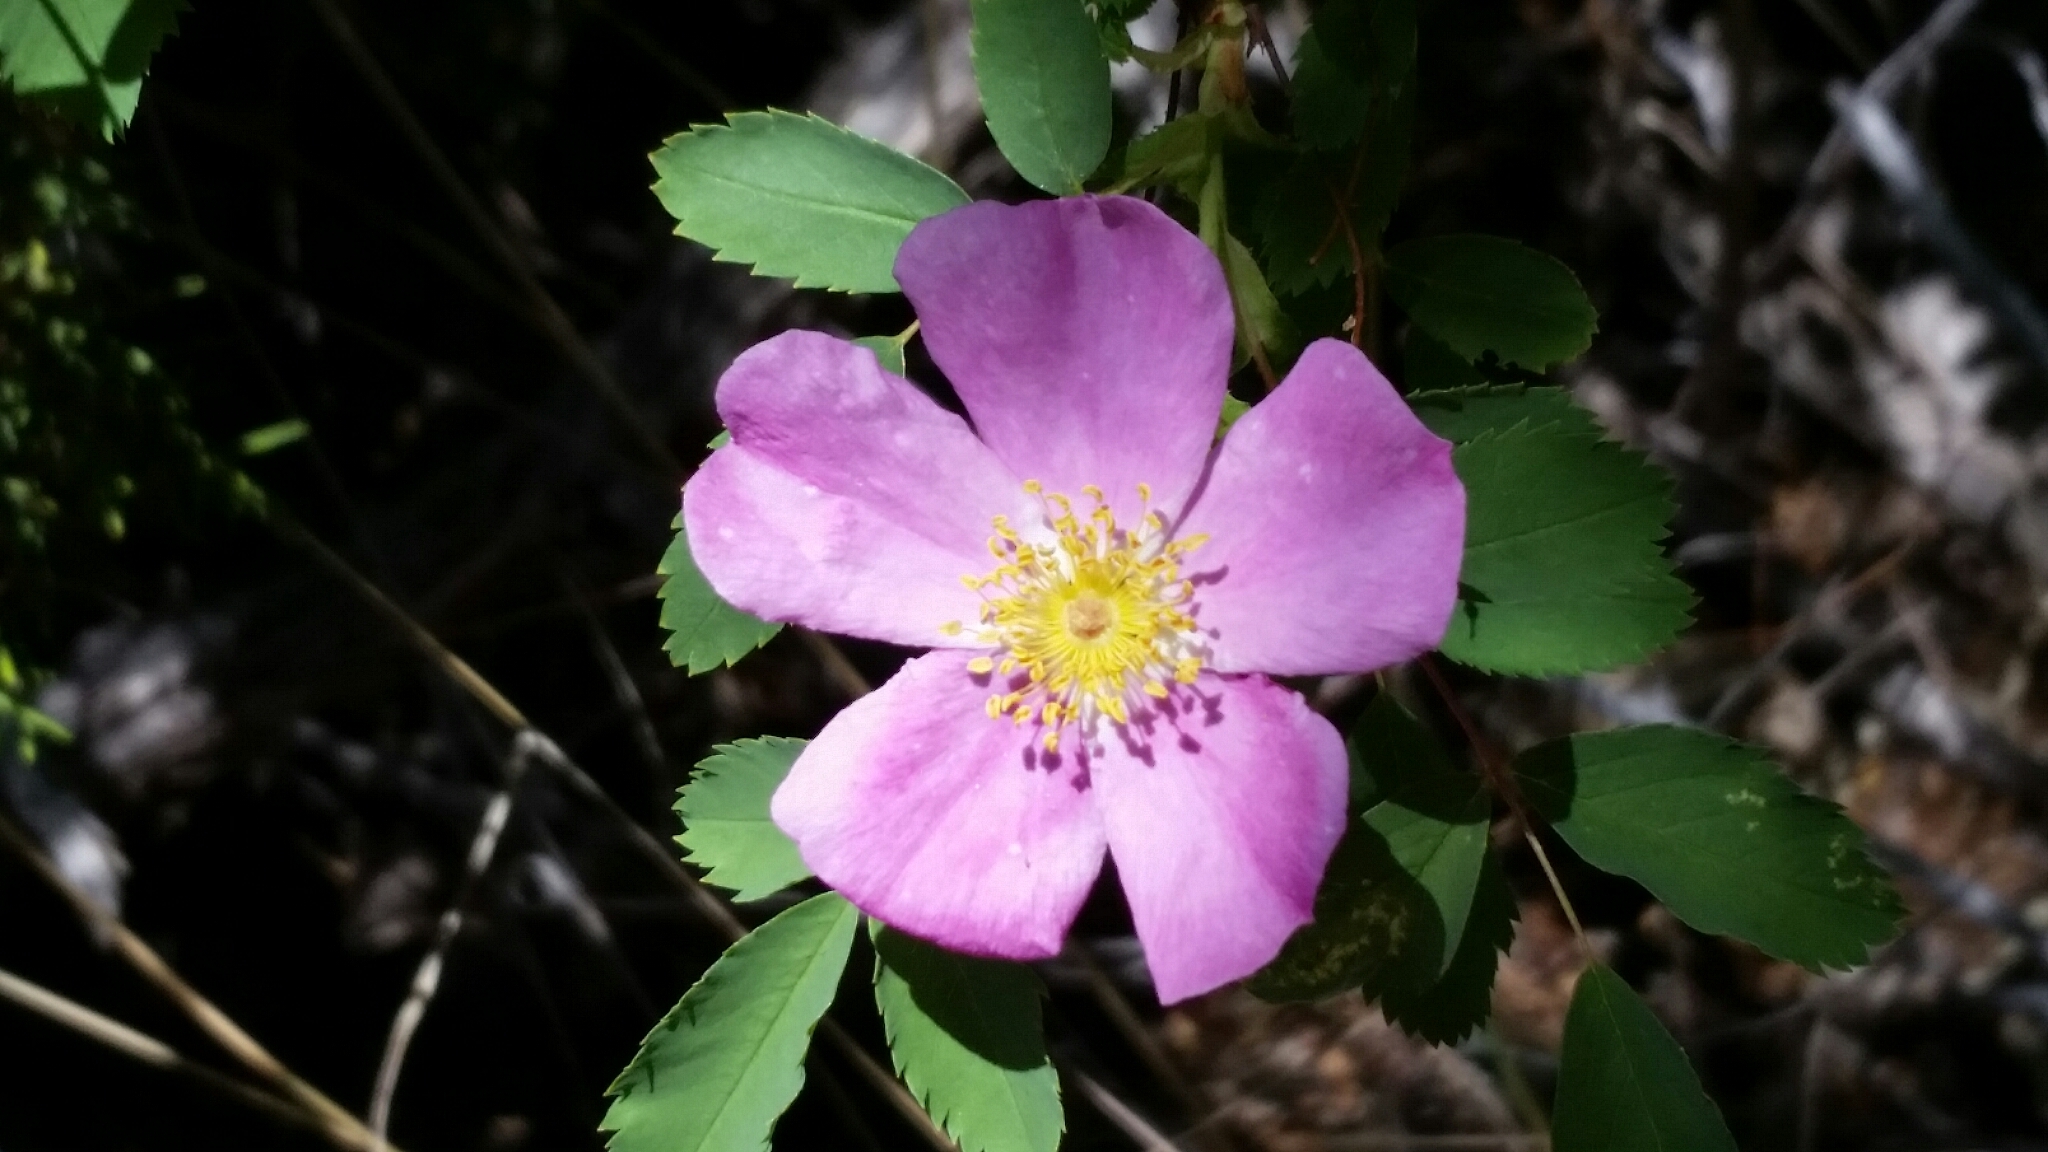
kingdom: Plantae
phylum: Tracheophyta
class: Magnoliopsida
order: Rosales
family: Rosaceae
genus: Rosa
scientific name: Rosa woodsii
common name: Woods's rose
